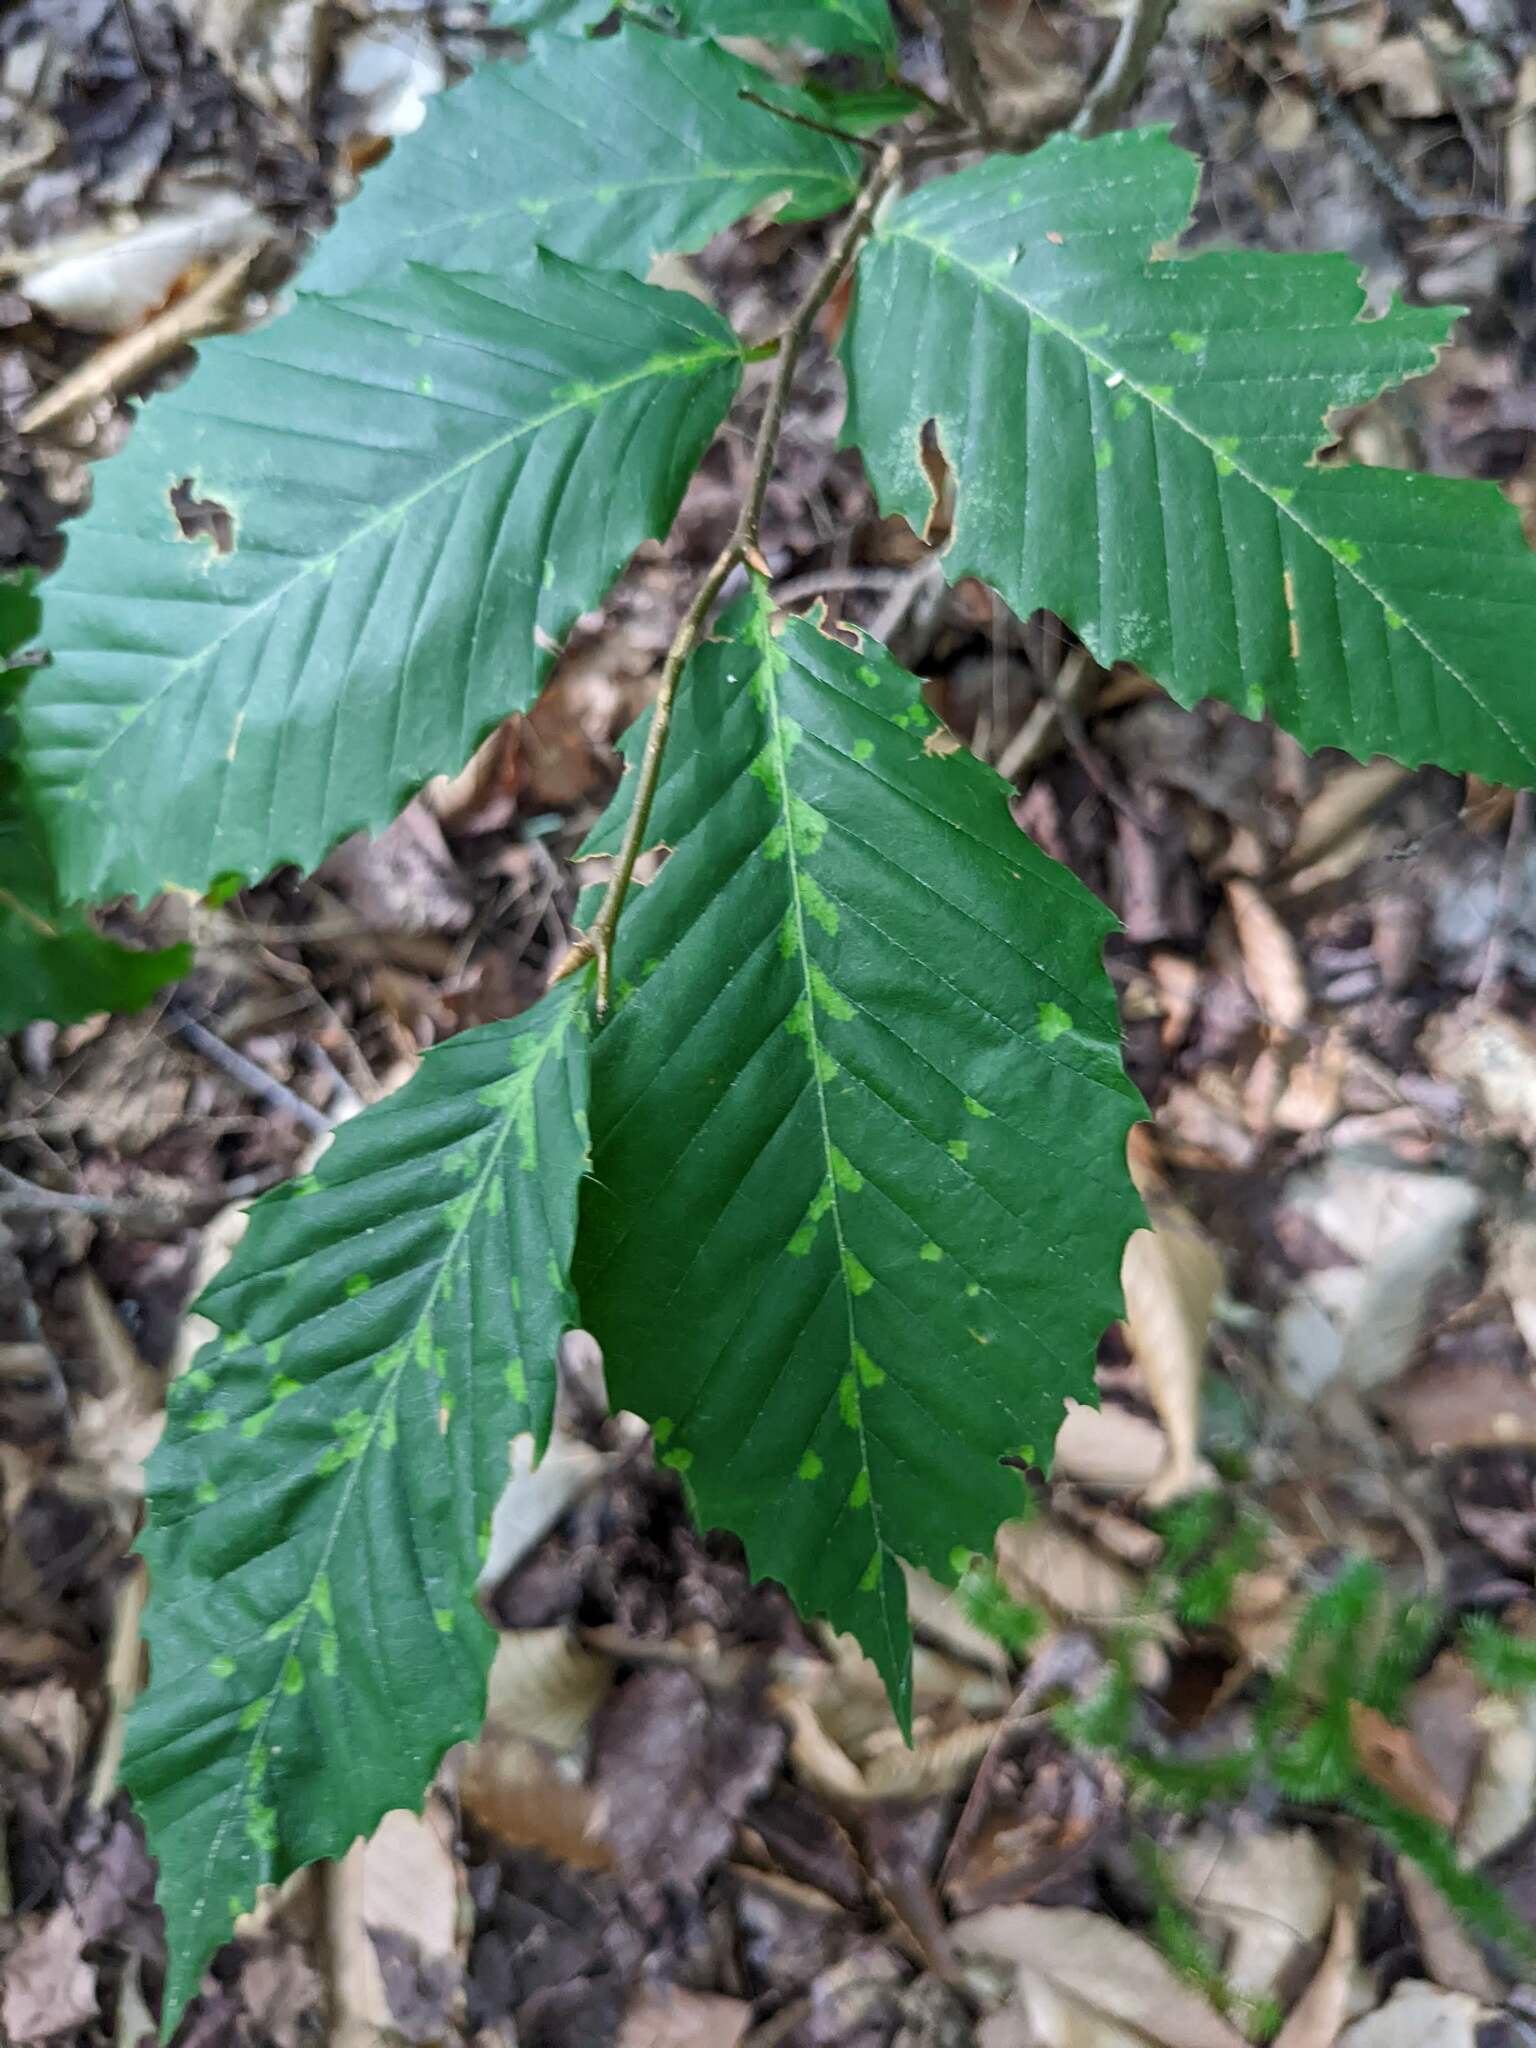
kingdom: Animalia
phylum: Arthropoda
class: Arachnida
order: Trombidiformes
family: Eriophyidae
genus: Acalitus
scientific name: Acalitus
